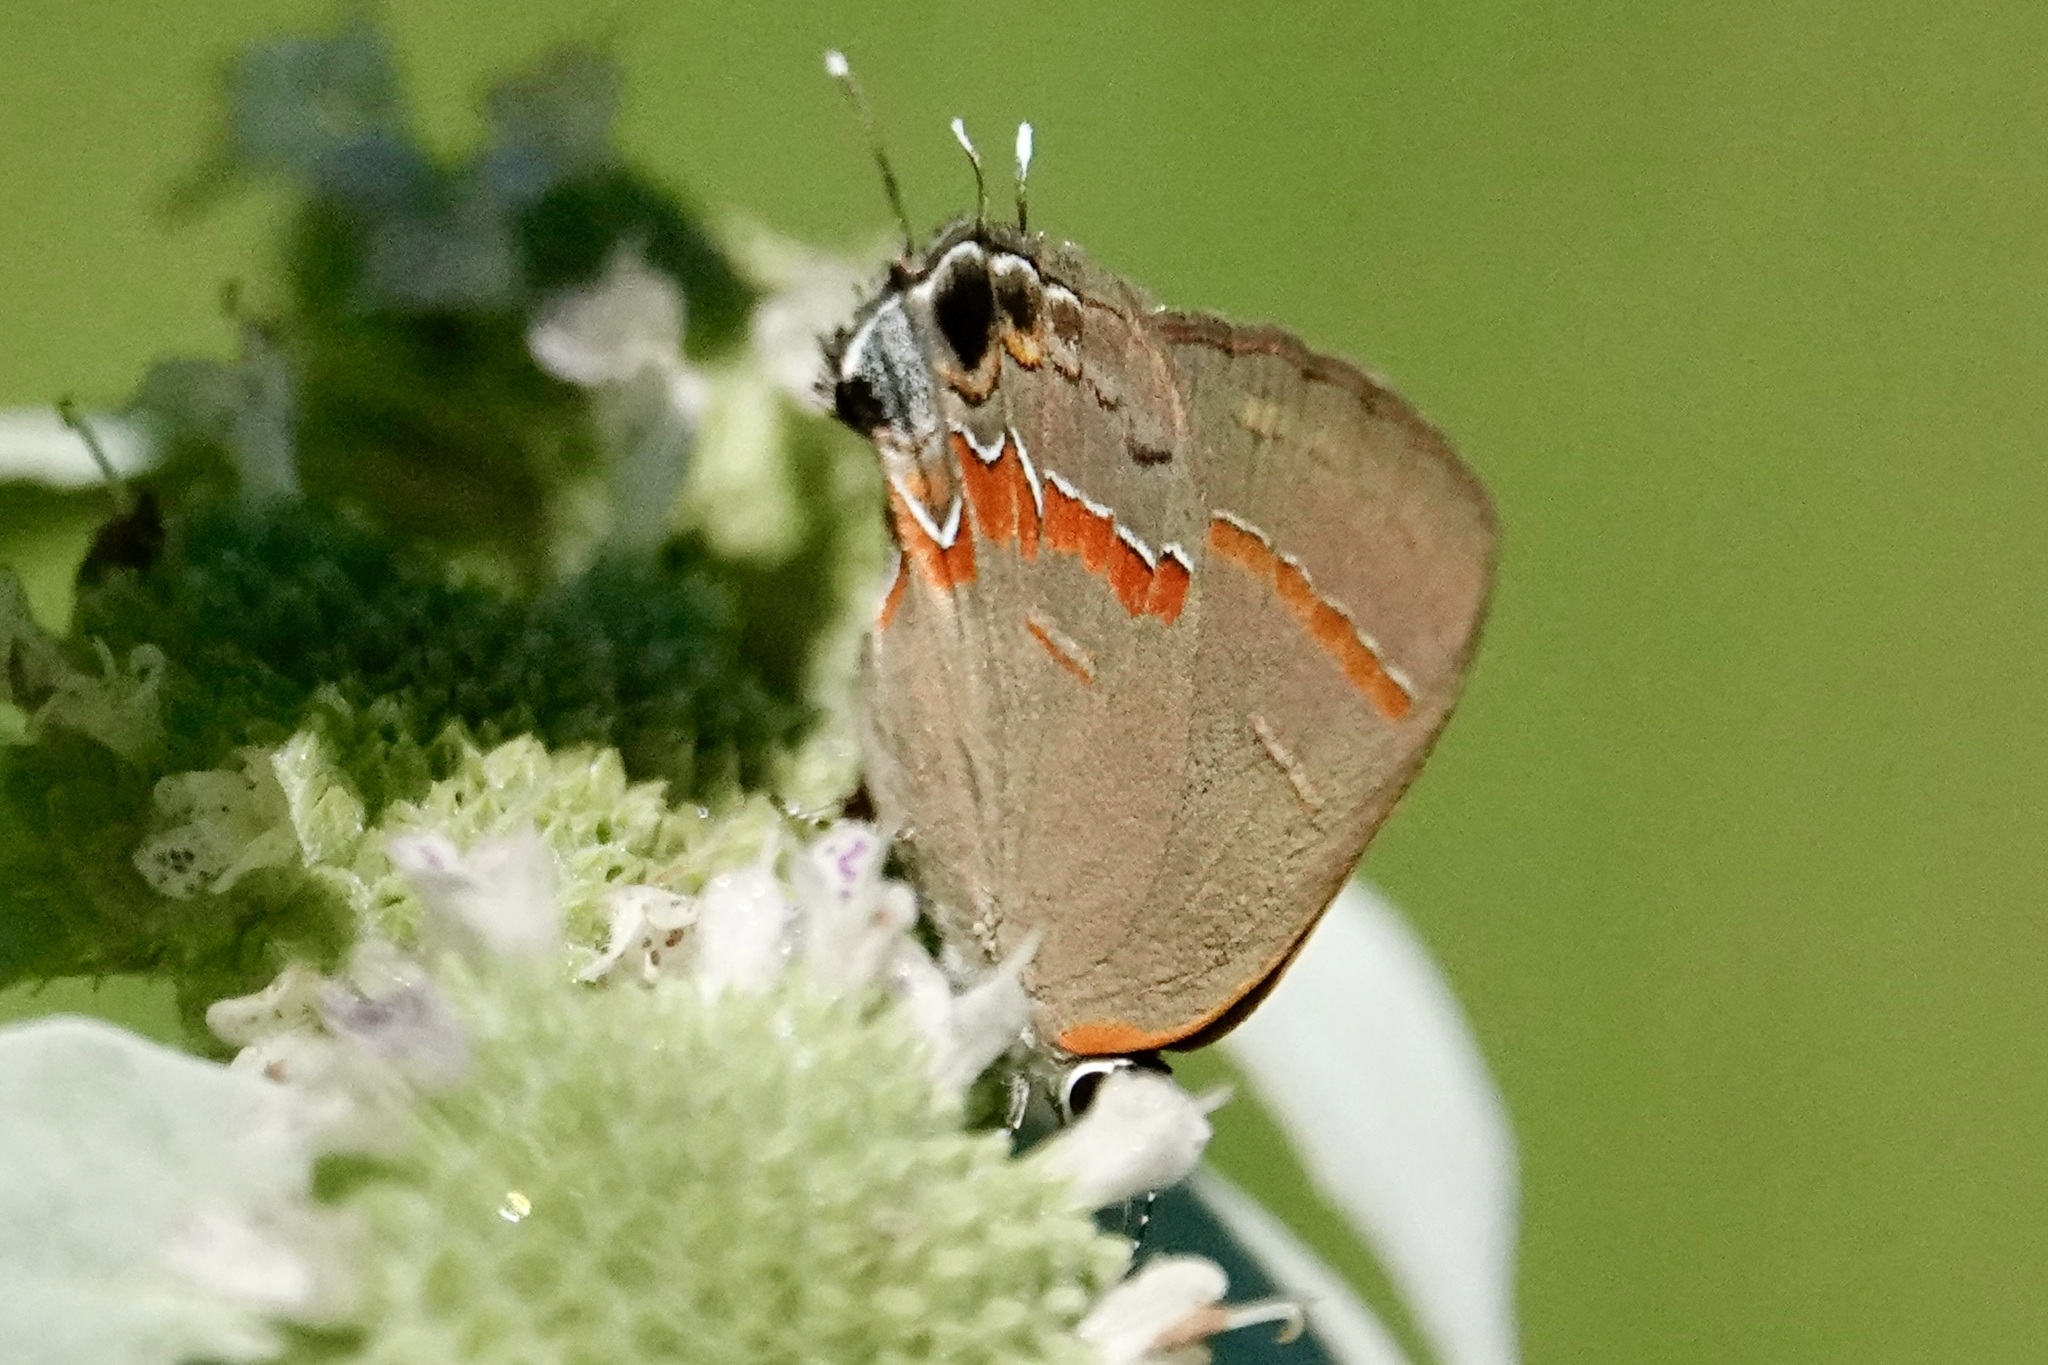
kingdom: Animalia
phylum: Arthropoda
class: Insecta
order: Lepidoptera
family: Lycaenidae
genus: Calycopis
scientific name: Calycopis cecrops
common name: Red-banded hairstreak
